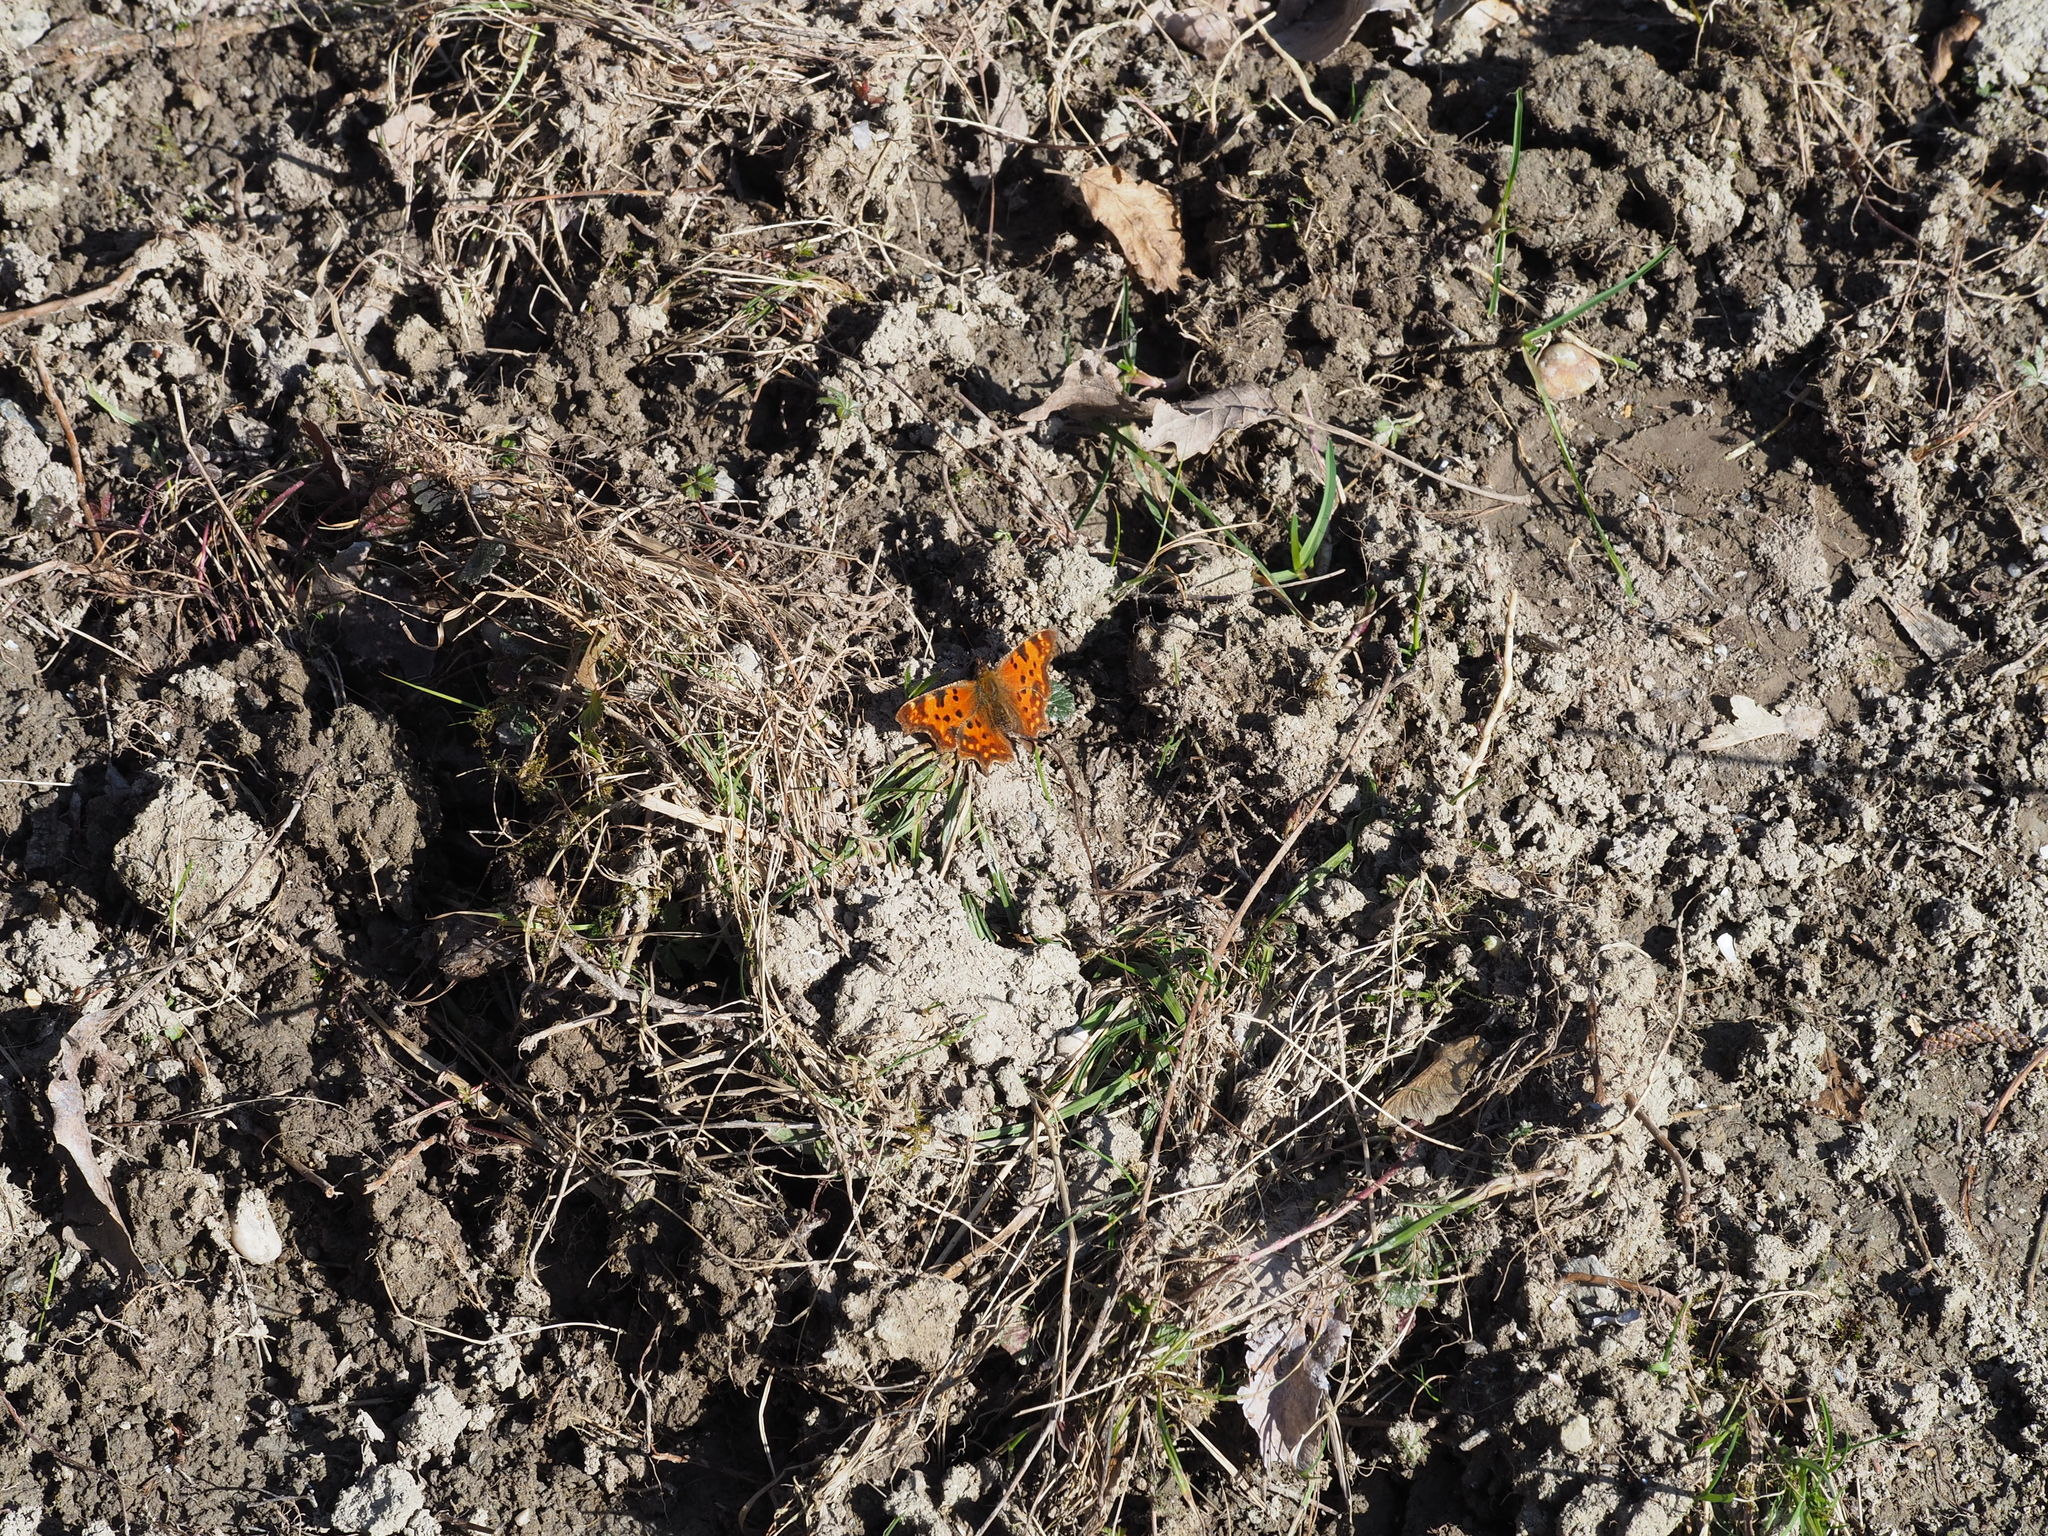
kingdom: Animalia
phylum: Arthropoda
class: Insecta
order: Lepidoptera
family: Nymphalidae
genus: Polygonia
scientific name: Polygonia c-album
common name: Comma
